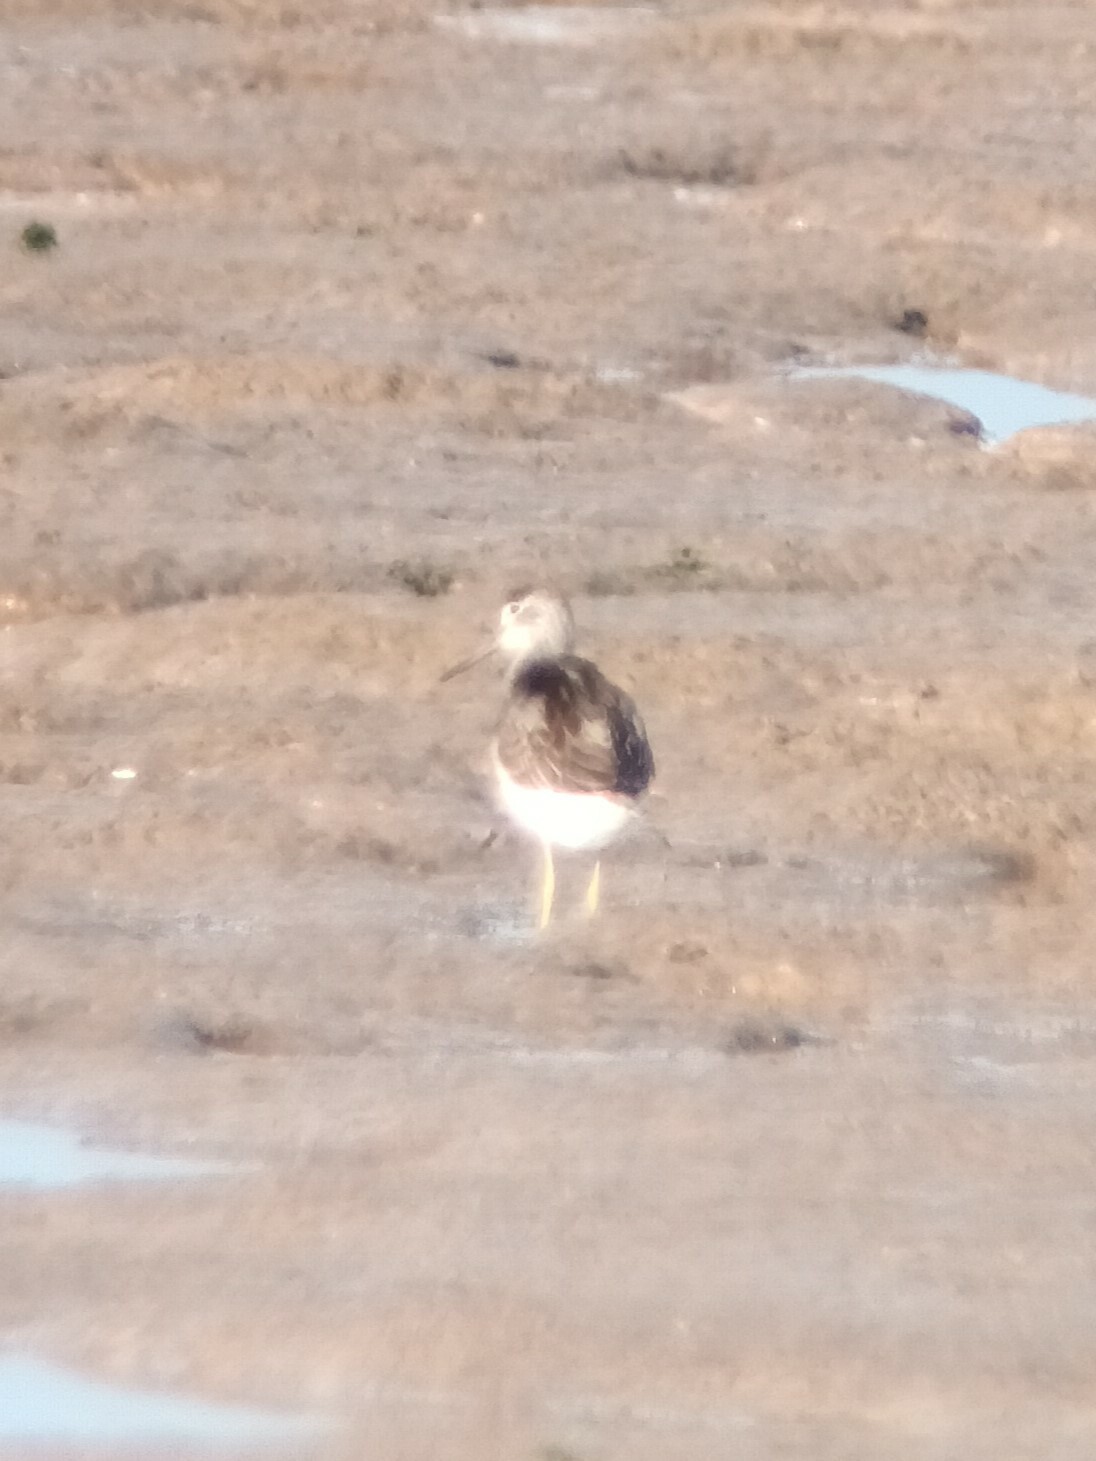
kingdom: Animalia
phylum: Chordata
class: Aves
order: Charadriiformes
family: Scolopacidae
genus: Tringa
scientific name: Tringa nebularia
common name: Common greenshank
